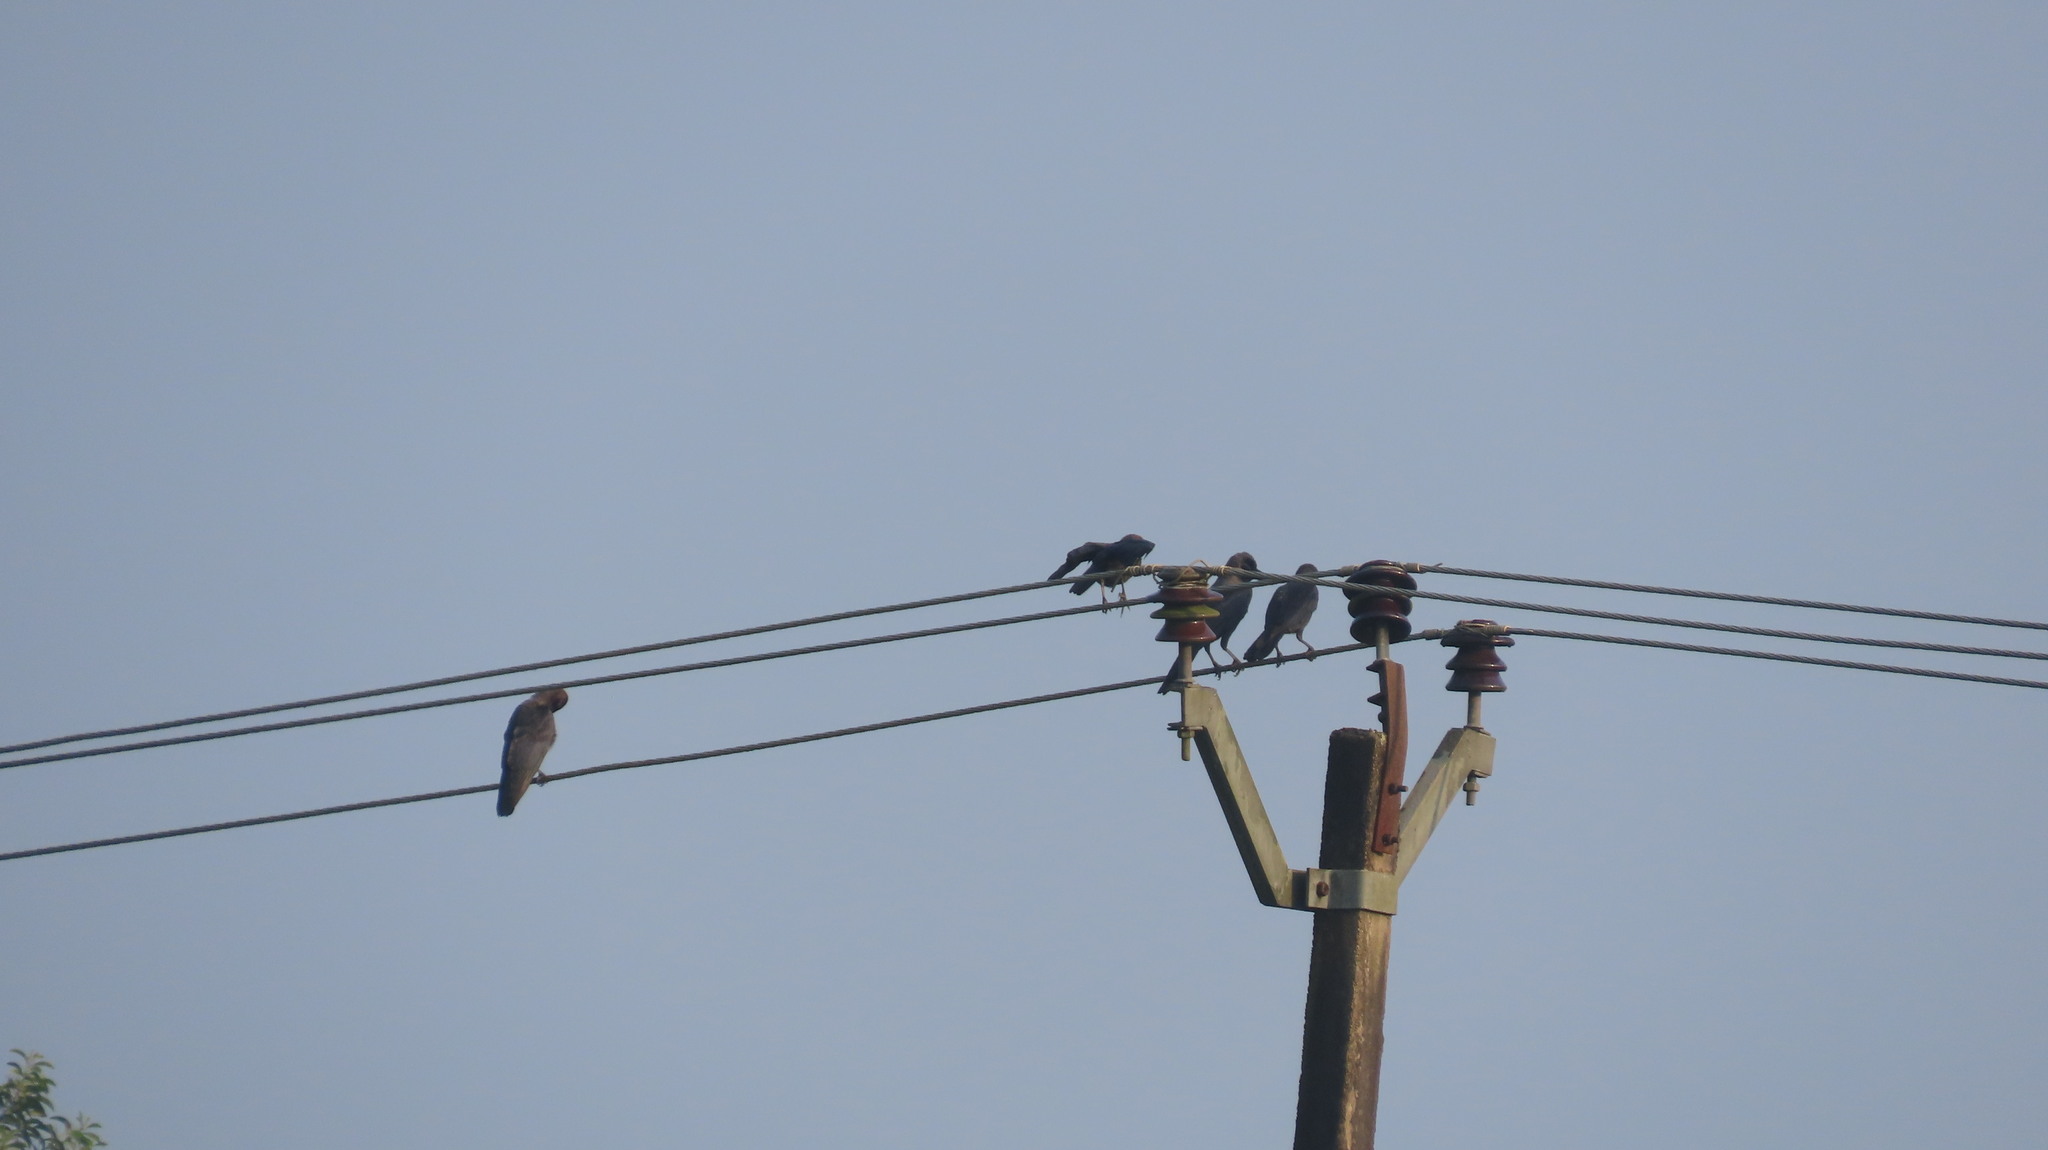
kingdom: Animalia
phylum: Chordata
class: Aves
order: Passeriformes
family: Corvidae
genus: Corvus
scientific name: Corvus splendens
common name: House crow
